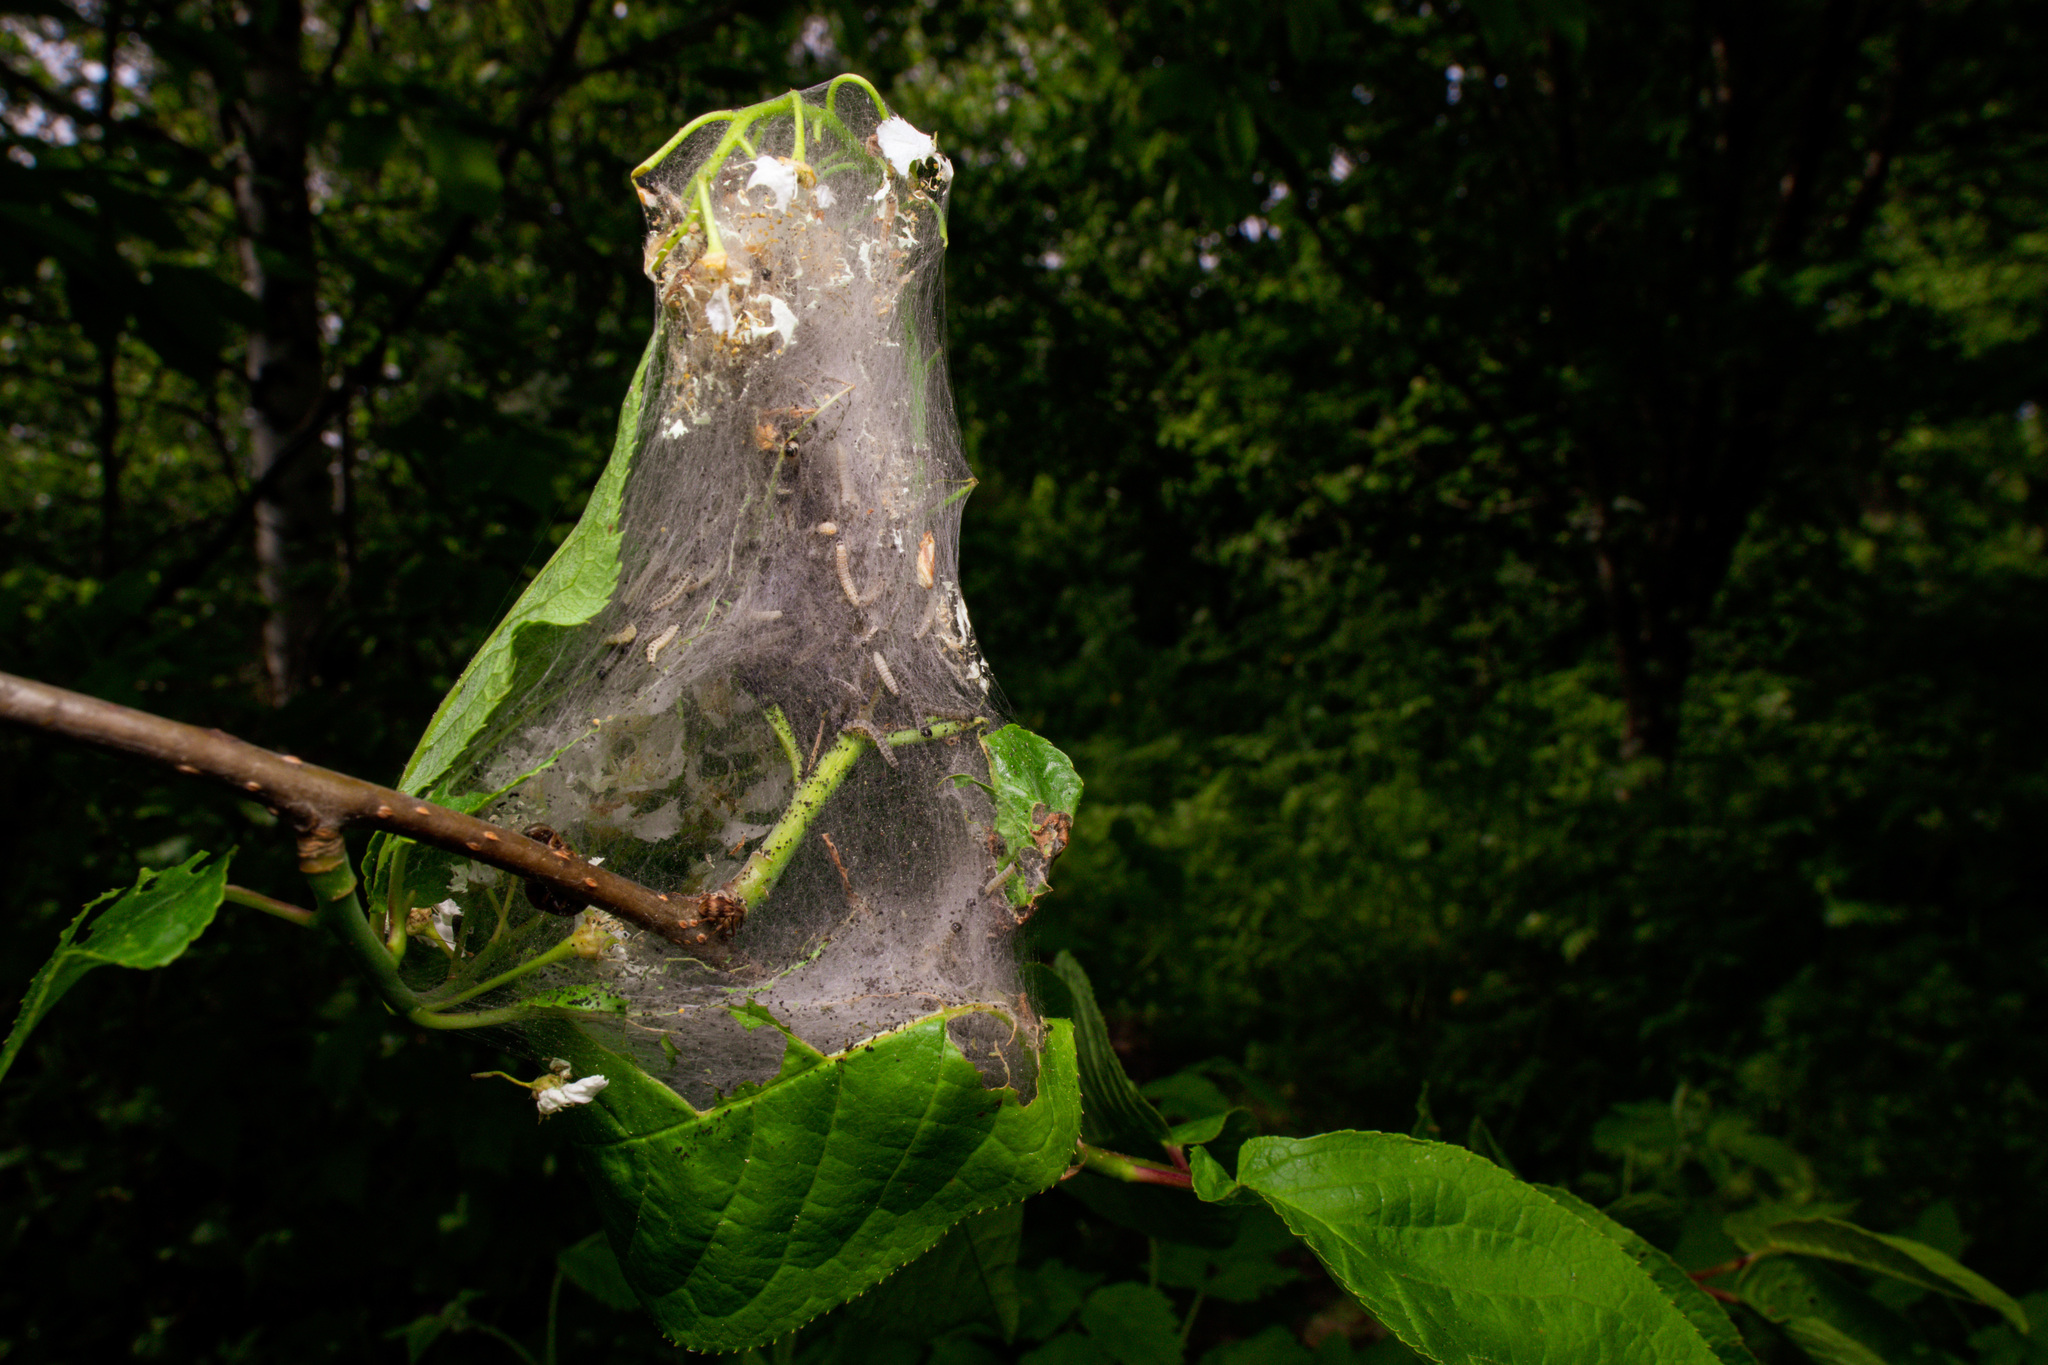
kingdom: Animalia
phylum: Arthropoda
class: Insecta
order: Lepidoptera
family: Yponomeutidae
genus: Yponomeuta
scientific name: Yponomeuta evonymella
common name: Bird-cherry ermine
